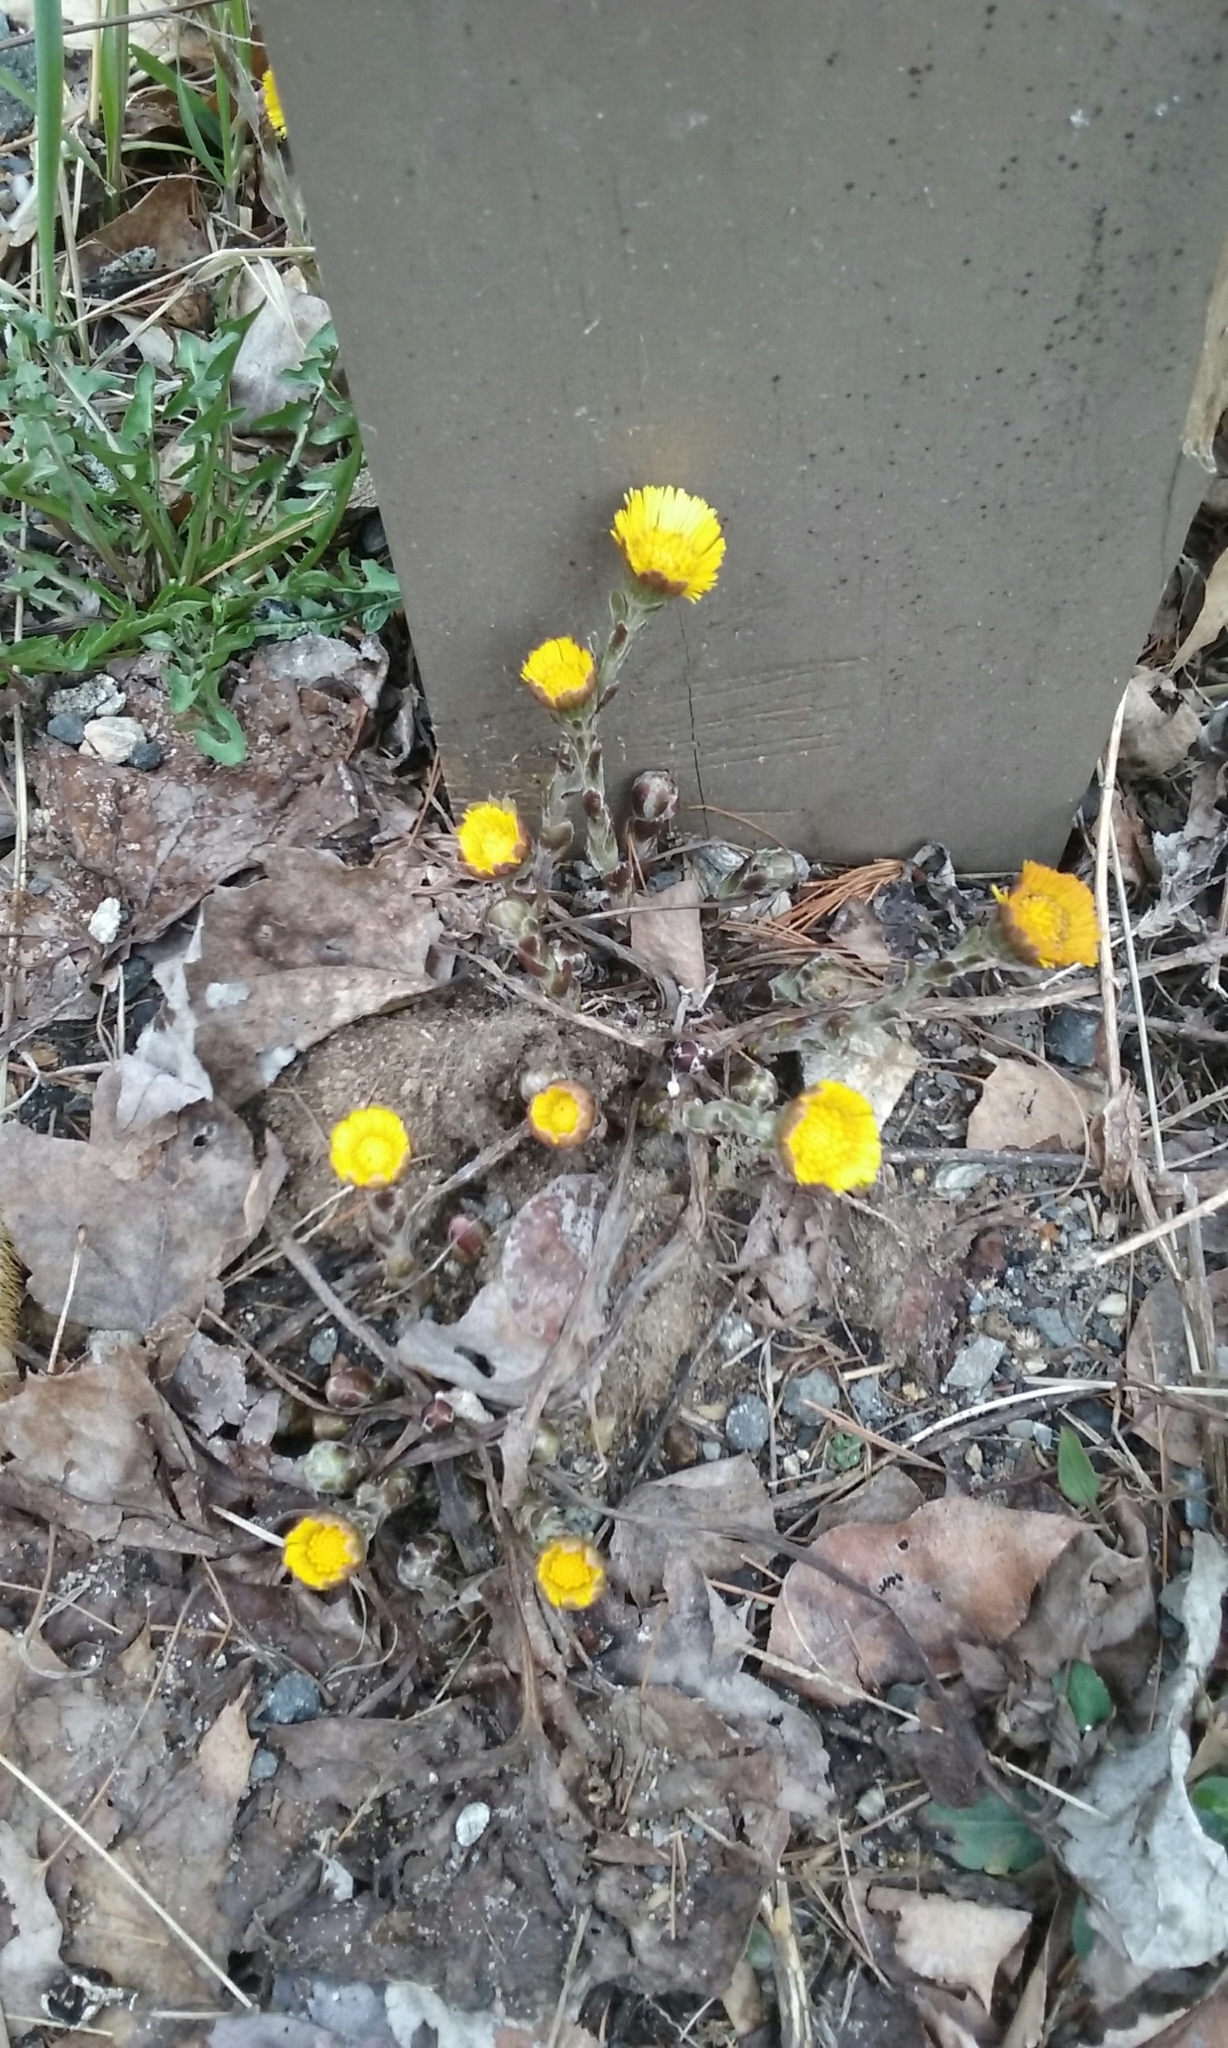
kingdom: Plantae
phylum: Tracheophyta
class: Magnoliopsida
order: Asterales
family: Asteraceae
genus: Tussilago
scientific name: Tussilago farfara
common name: Coltsfoot
